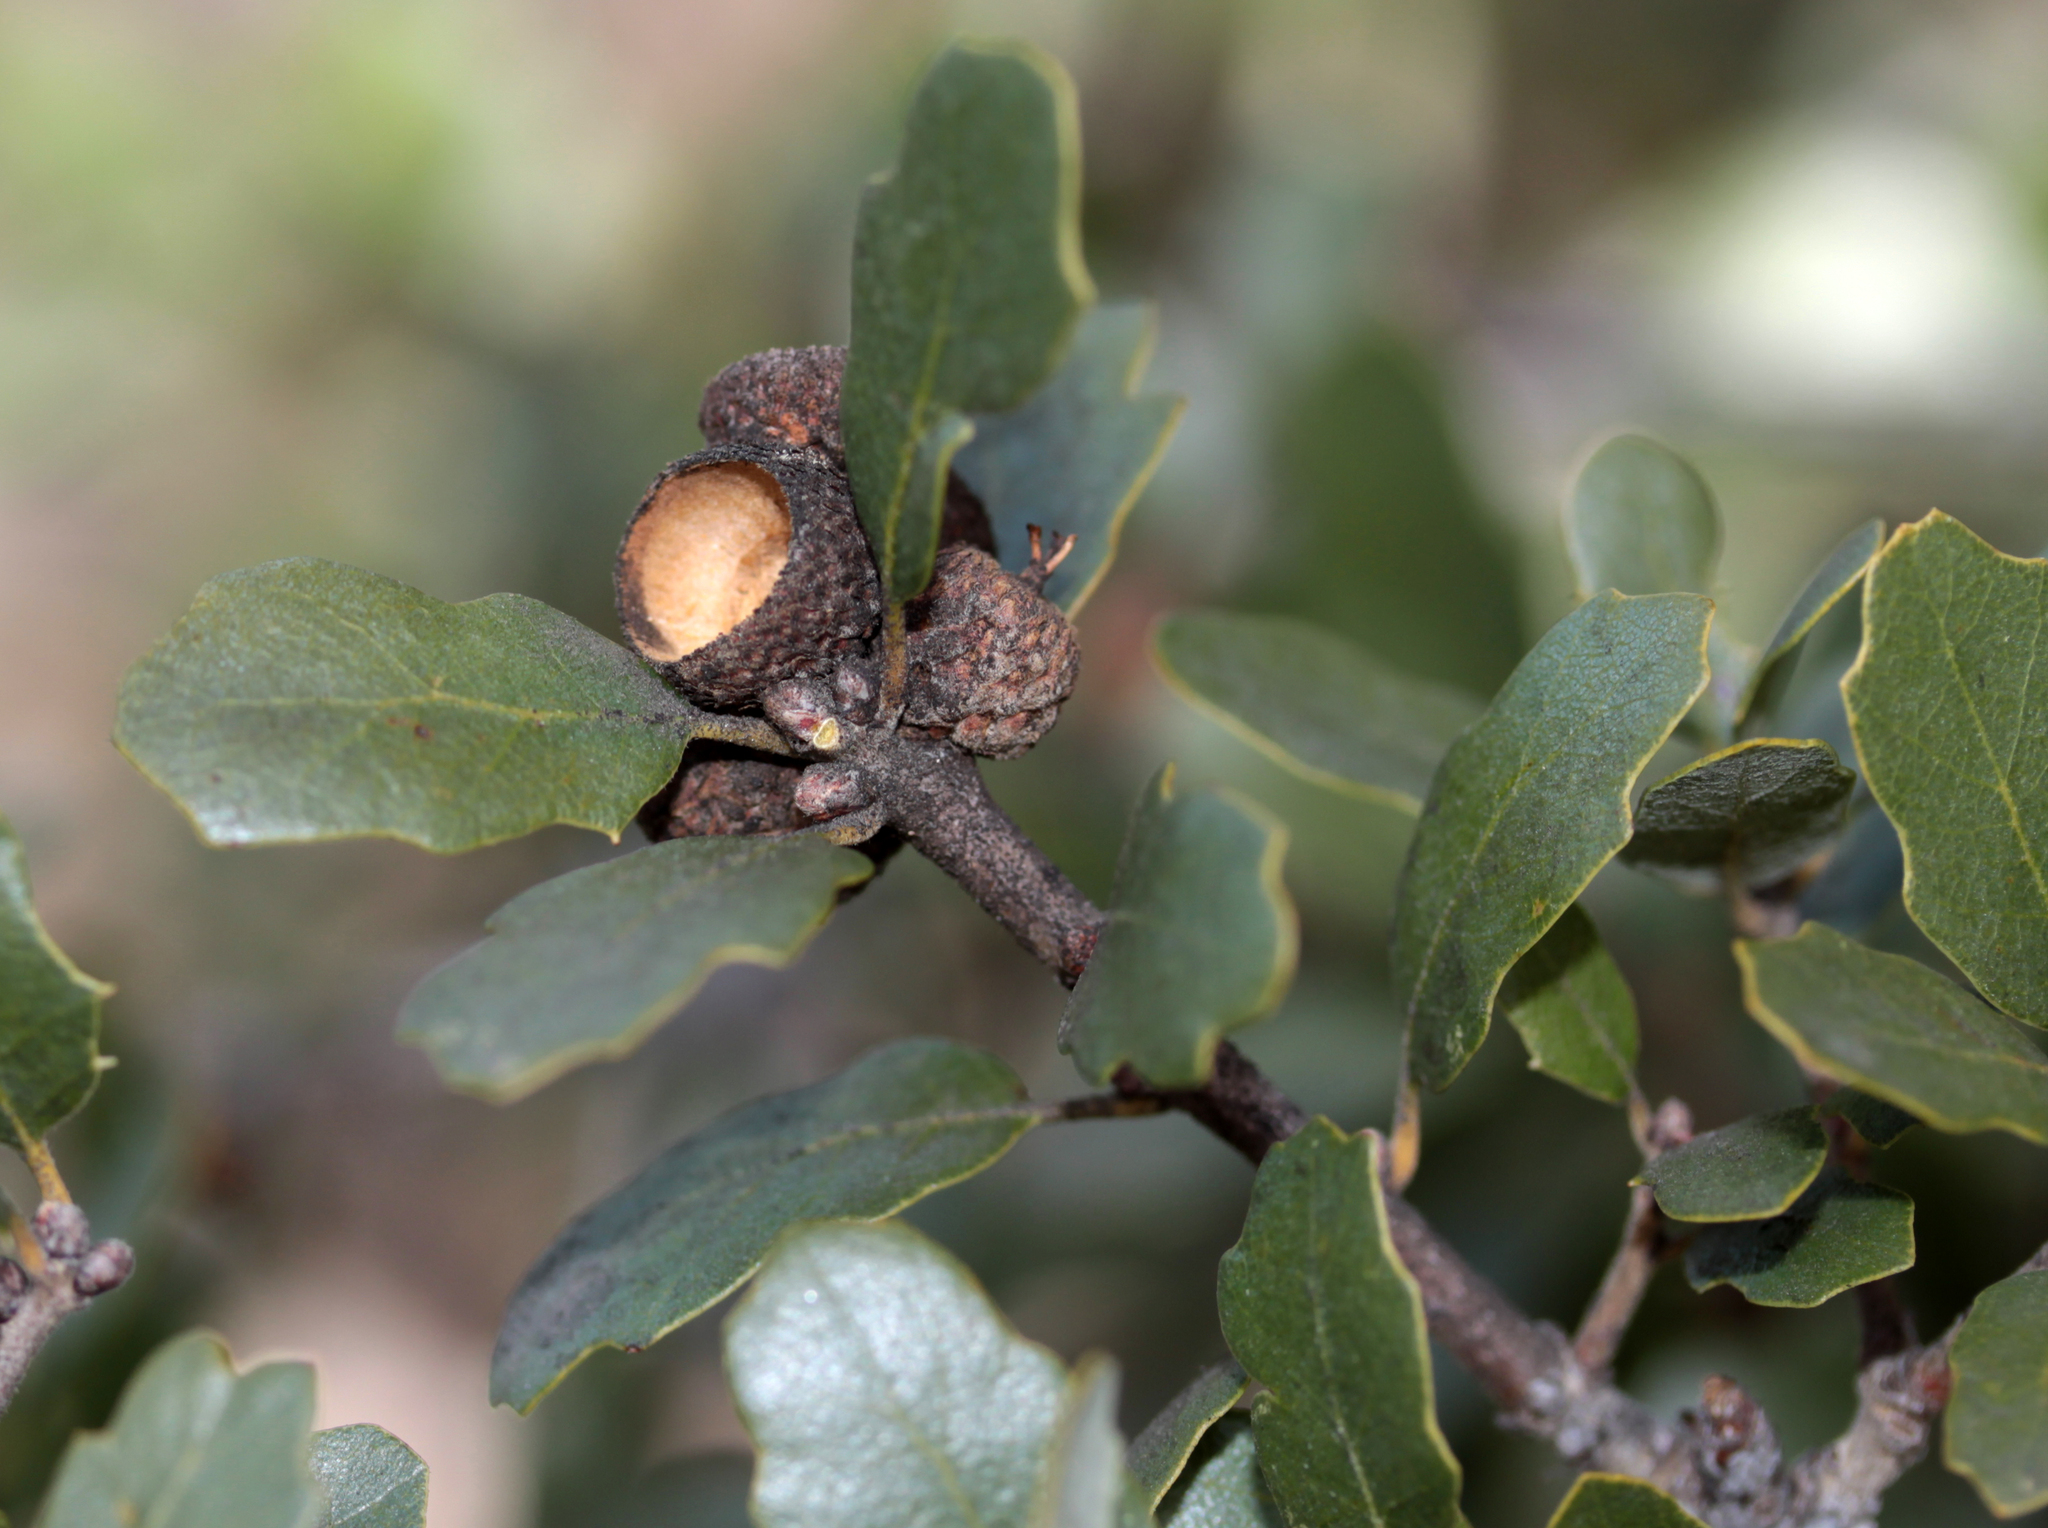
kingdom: Plantae
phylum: Tracheophyta
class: Magnoliopsida
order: Fagales
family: Fagaceae
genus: Quercus
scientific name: Quercus berberidifolia
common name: California scrub oak
